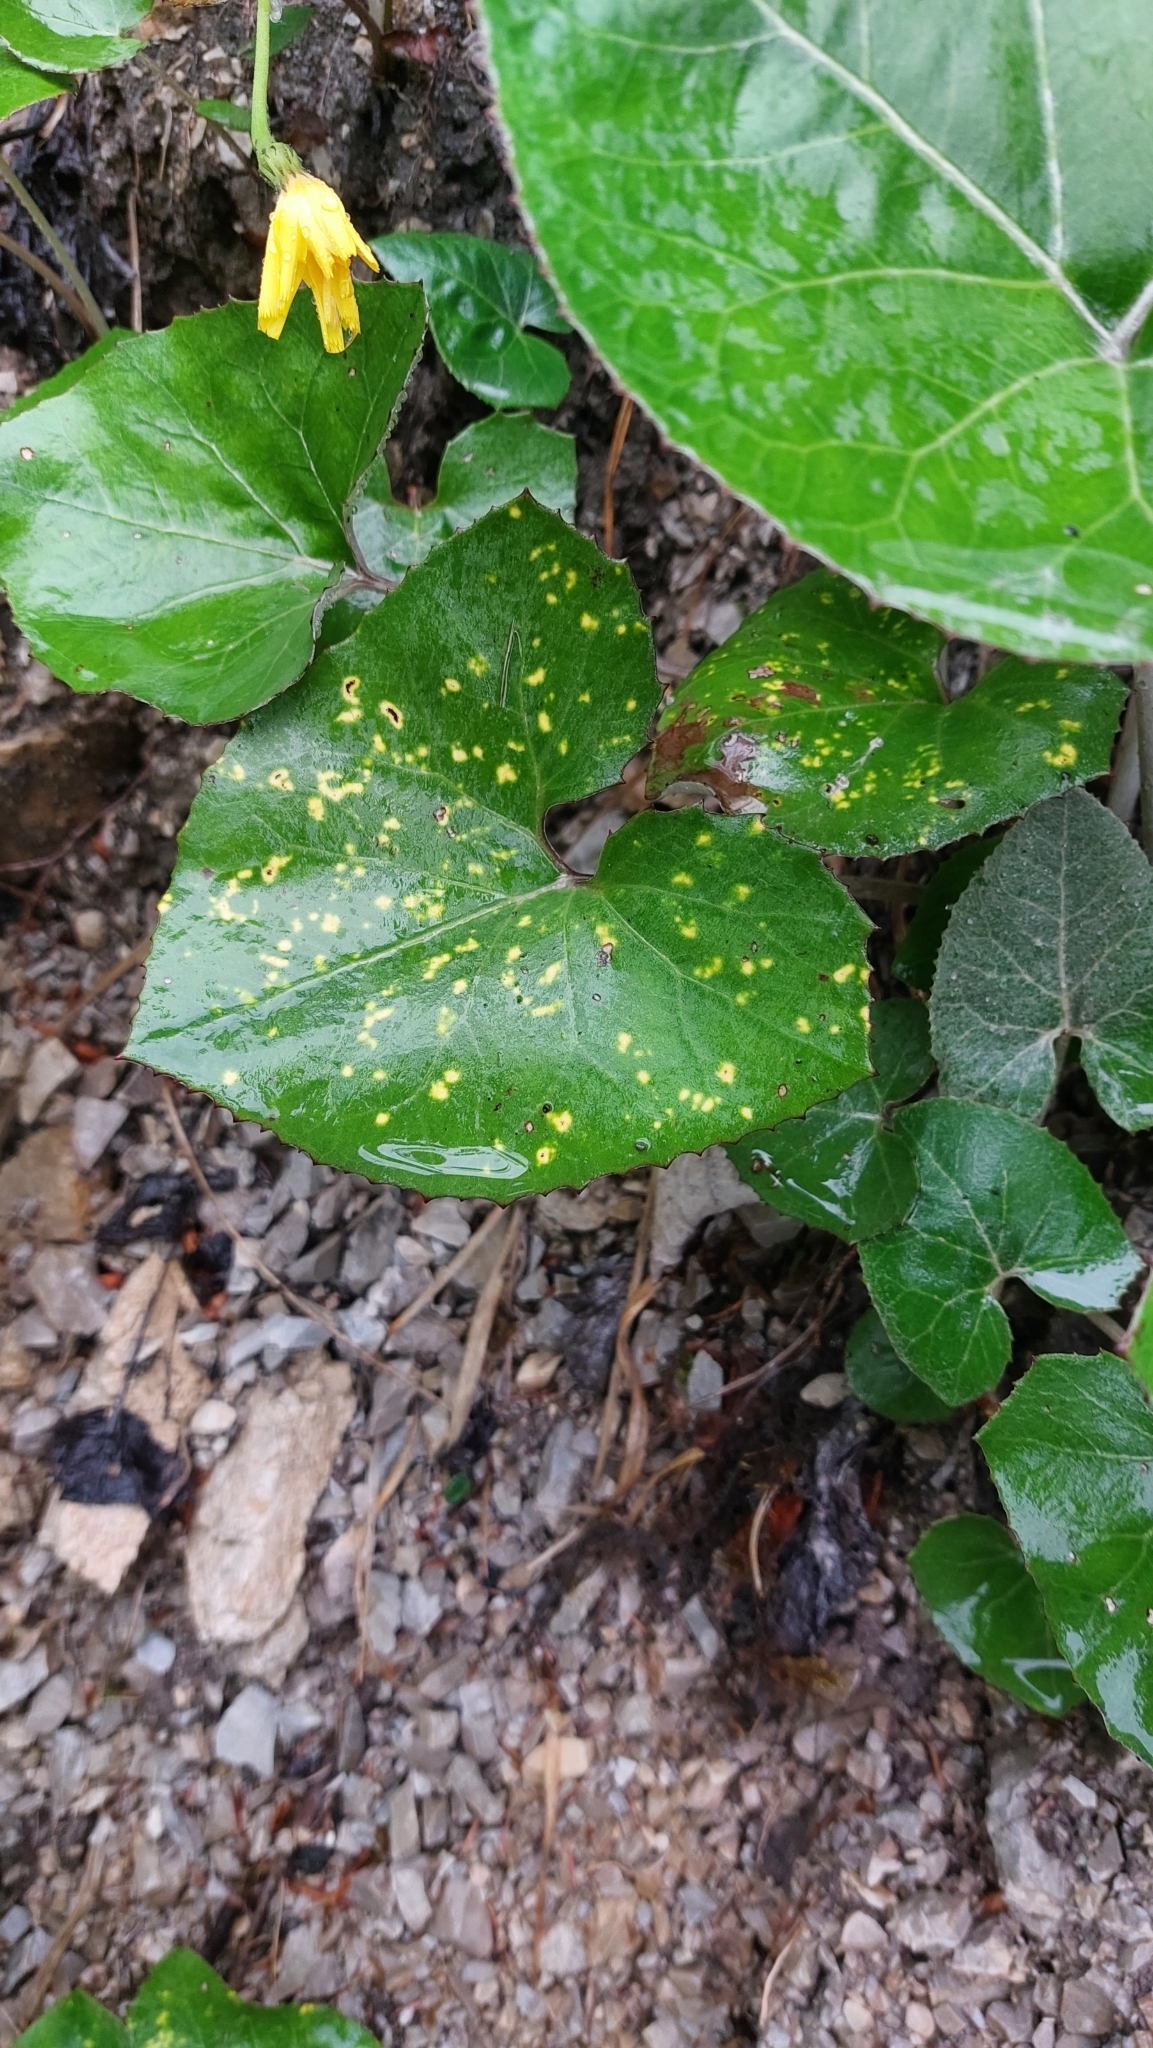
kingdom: Plantae
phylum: Tracheophyta
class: Magnoliopsida
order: Asterales
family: Asteraceae
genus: Petasites
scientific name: Petasites paradoxus
